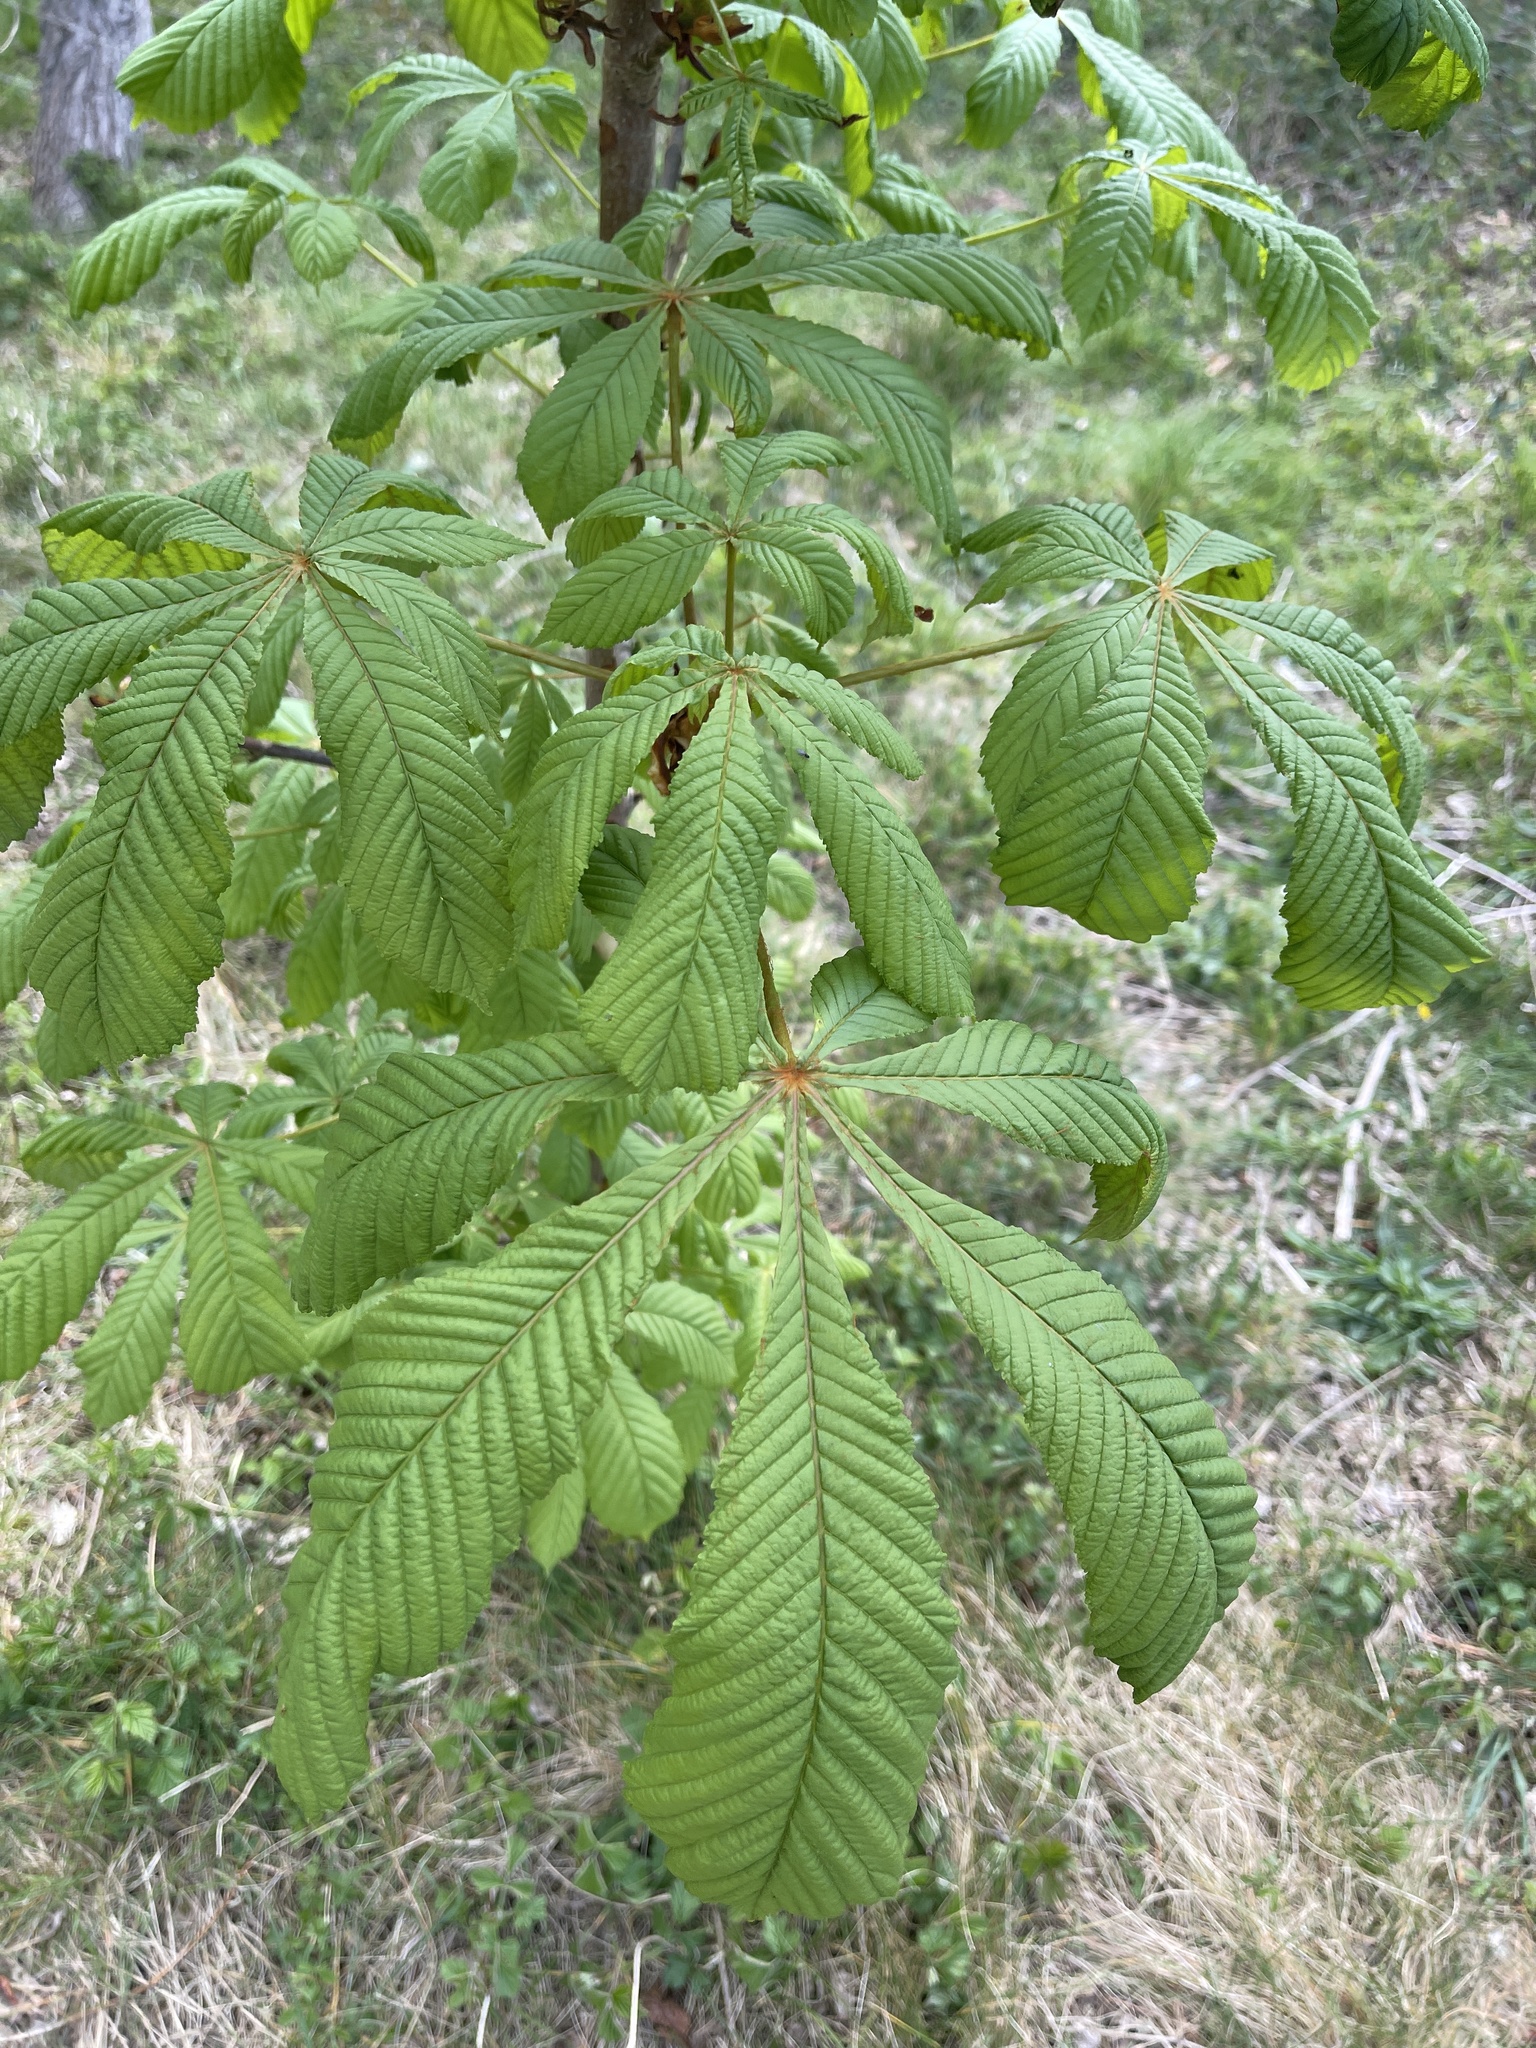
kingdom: Plantae
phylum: Tracheophyta
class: Magnoliopsida
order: Sapindales
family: Sapindaceae
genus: Aesculus
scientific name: Aesculus hippocastanum
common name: Horse-chestnut
